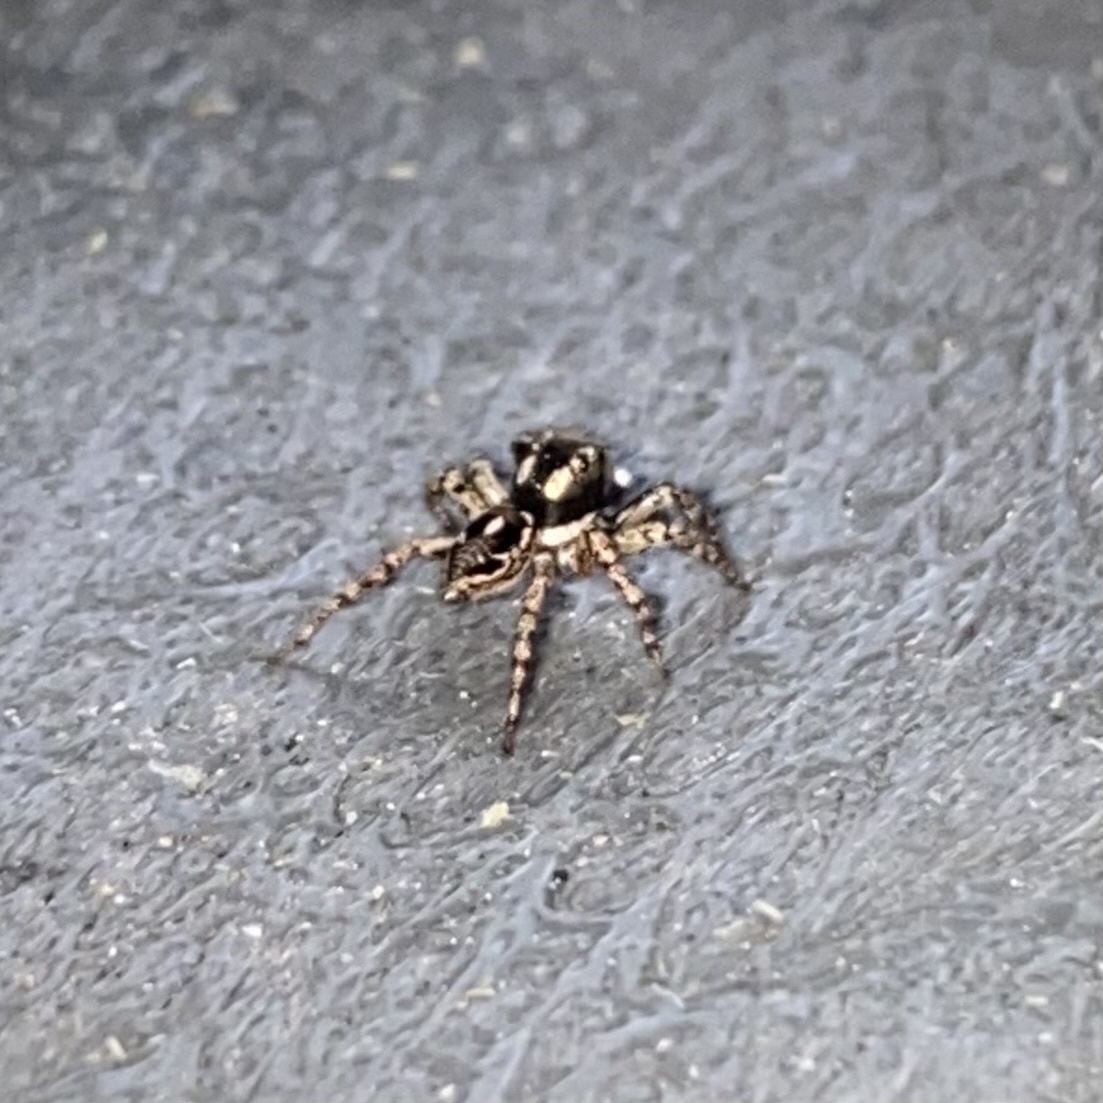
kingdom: Animalia
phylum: Arthropoda
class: Arachnida
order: Araneae
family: Salticidae
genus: Anasaitis
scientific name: Anasaitis canosa
